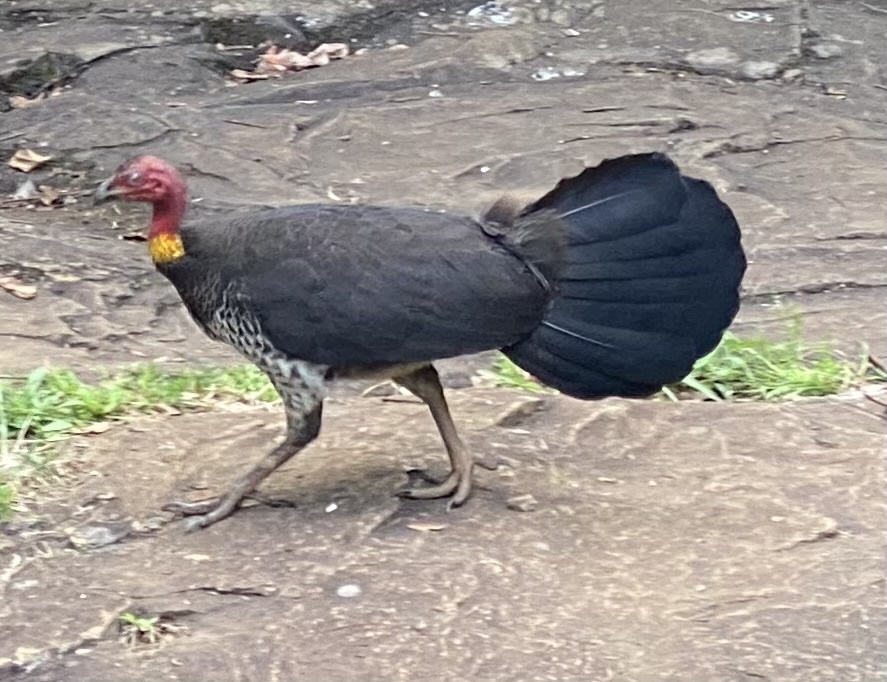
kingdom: Animalia
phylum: Chordata
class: Aves
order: Galliformes
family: Megapodiidae
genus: Alectura
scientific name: Alectura lathami
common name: Australian brushturkey
